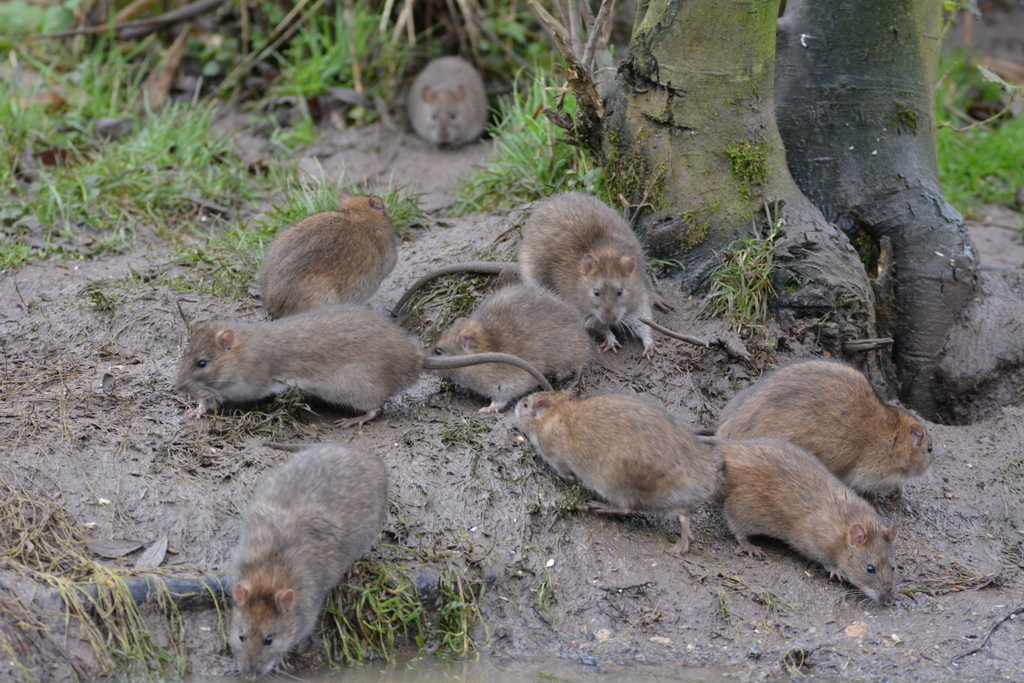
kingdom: Animalia
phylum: Chordata
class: Mammalia
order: Rodentia
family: Muridae
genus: Rattus
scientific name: Rattus norvegicus
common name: Brown rat
